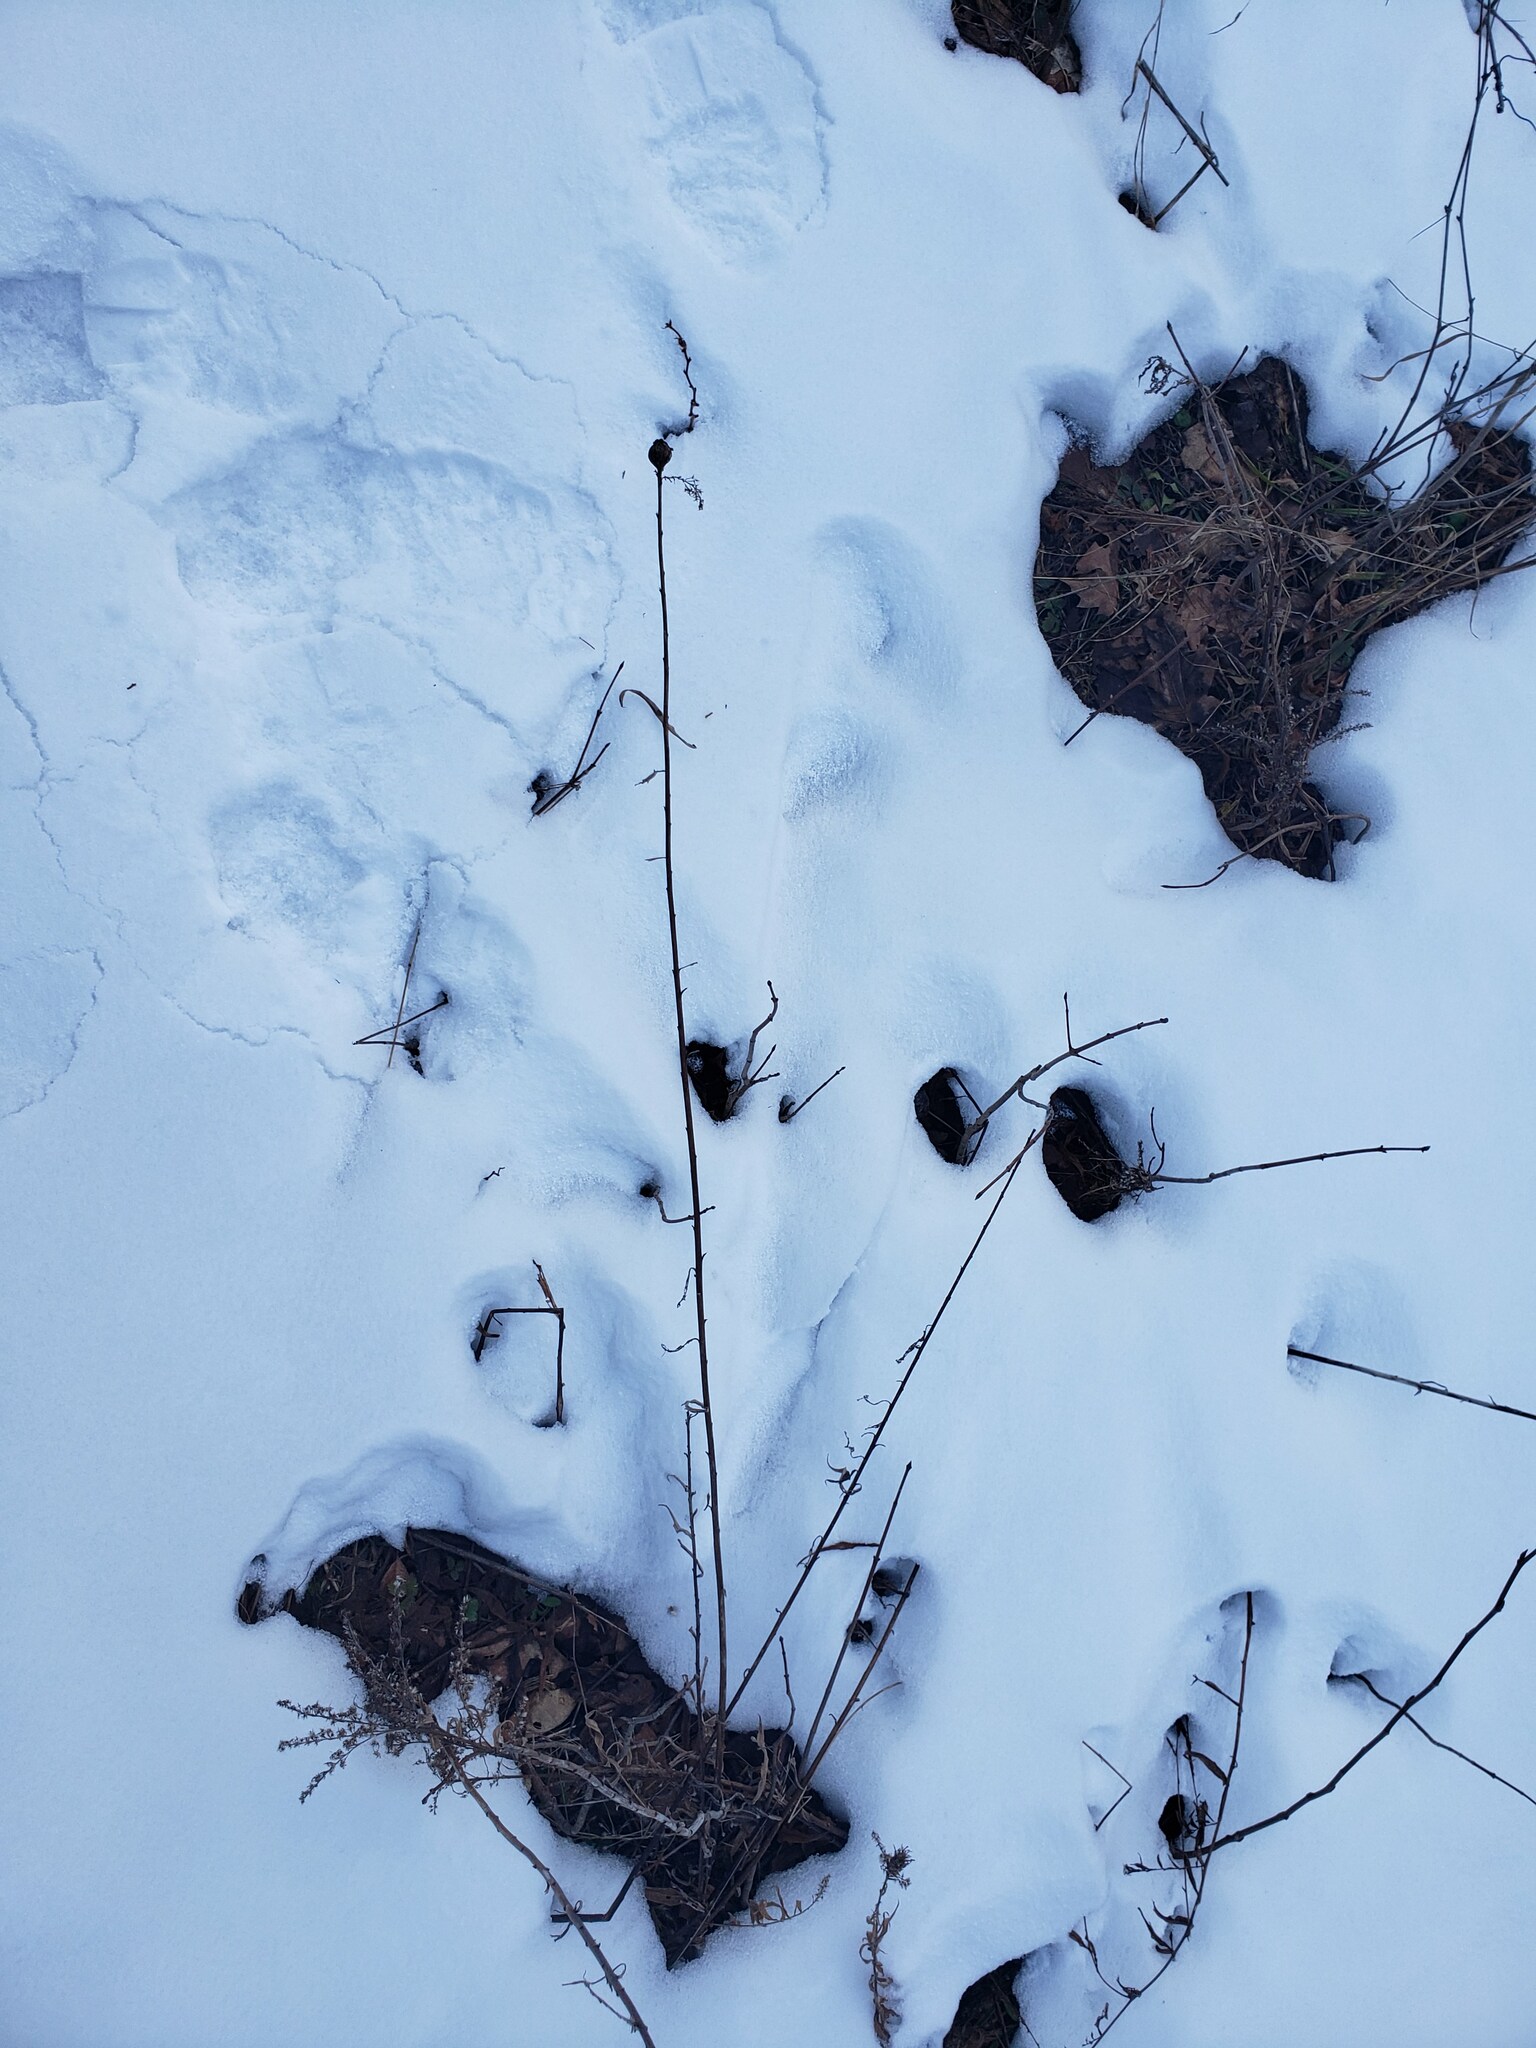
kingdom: Animalia
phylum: Arthropoda
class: Insecta
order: Diptera
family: Tephritidae
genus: Eurosta
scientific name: Eurosta solidaginis
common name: Goldenrod gall fly
